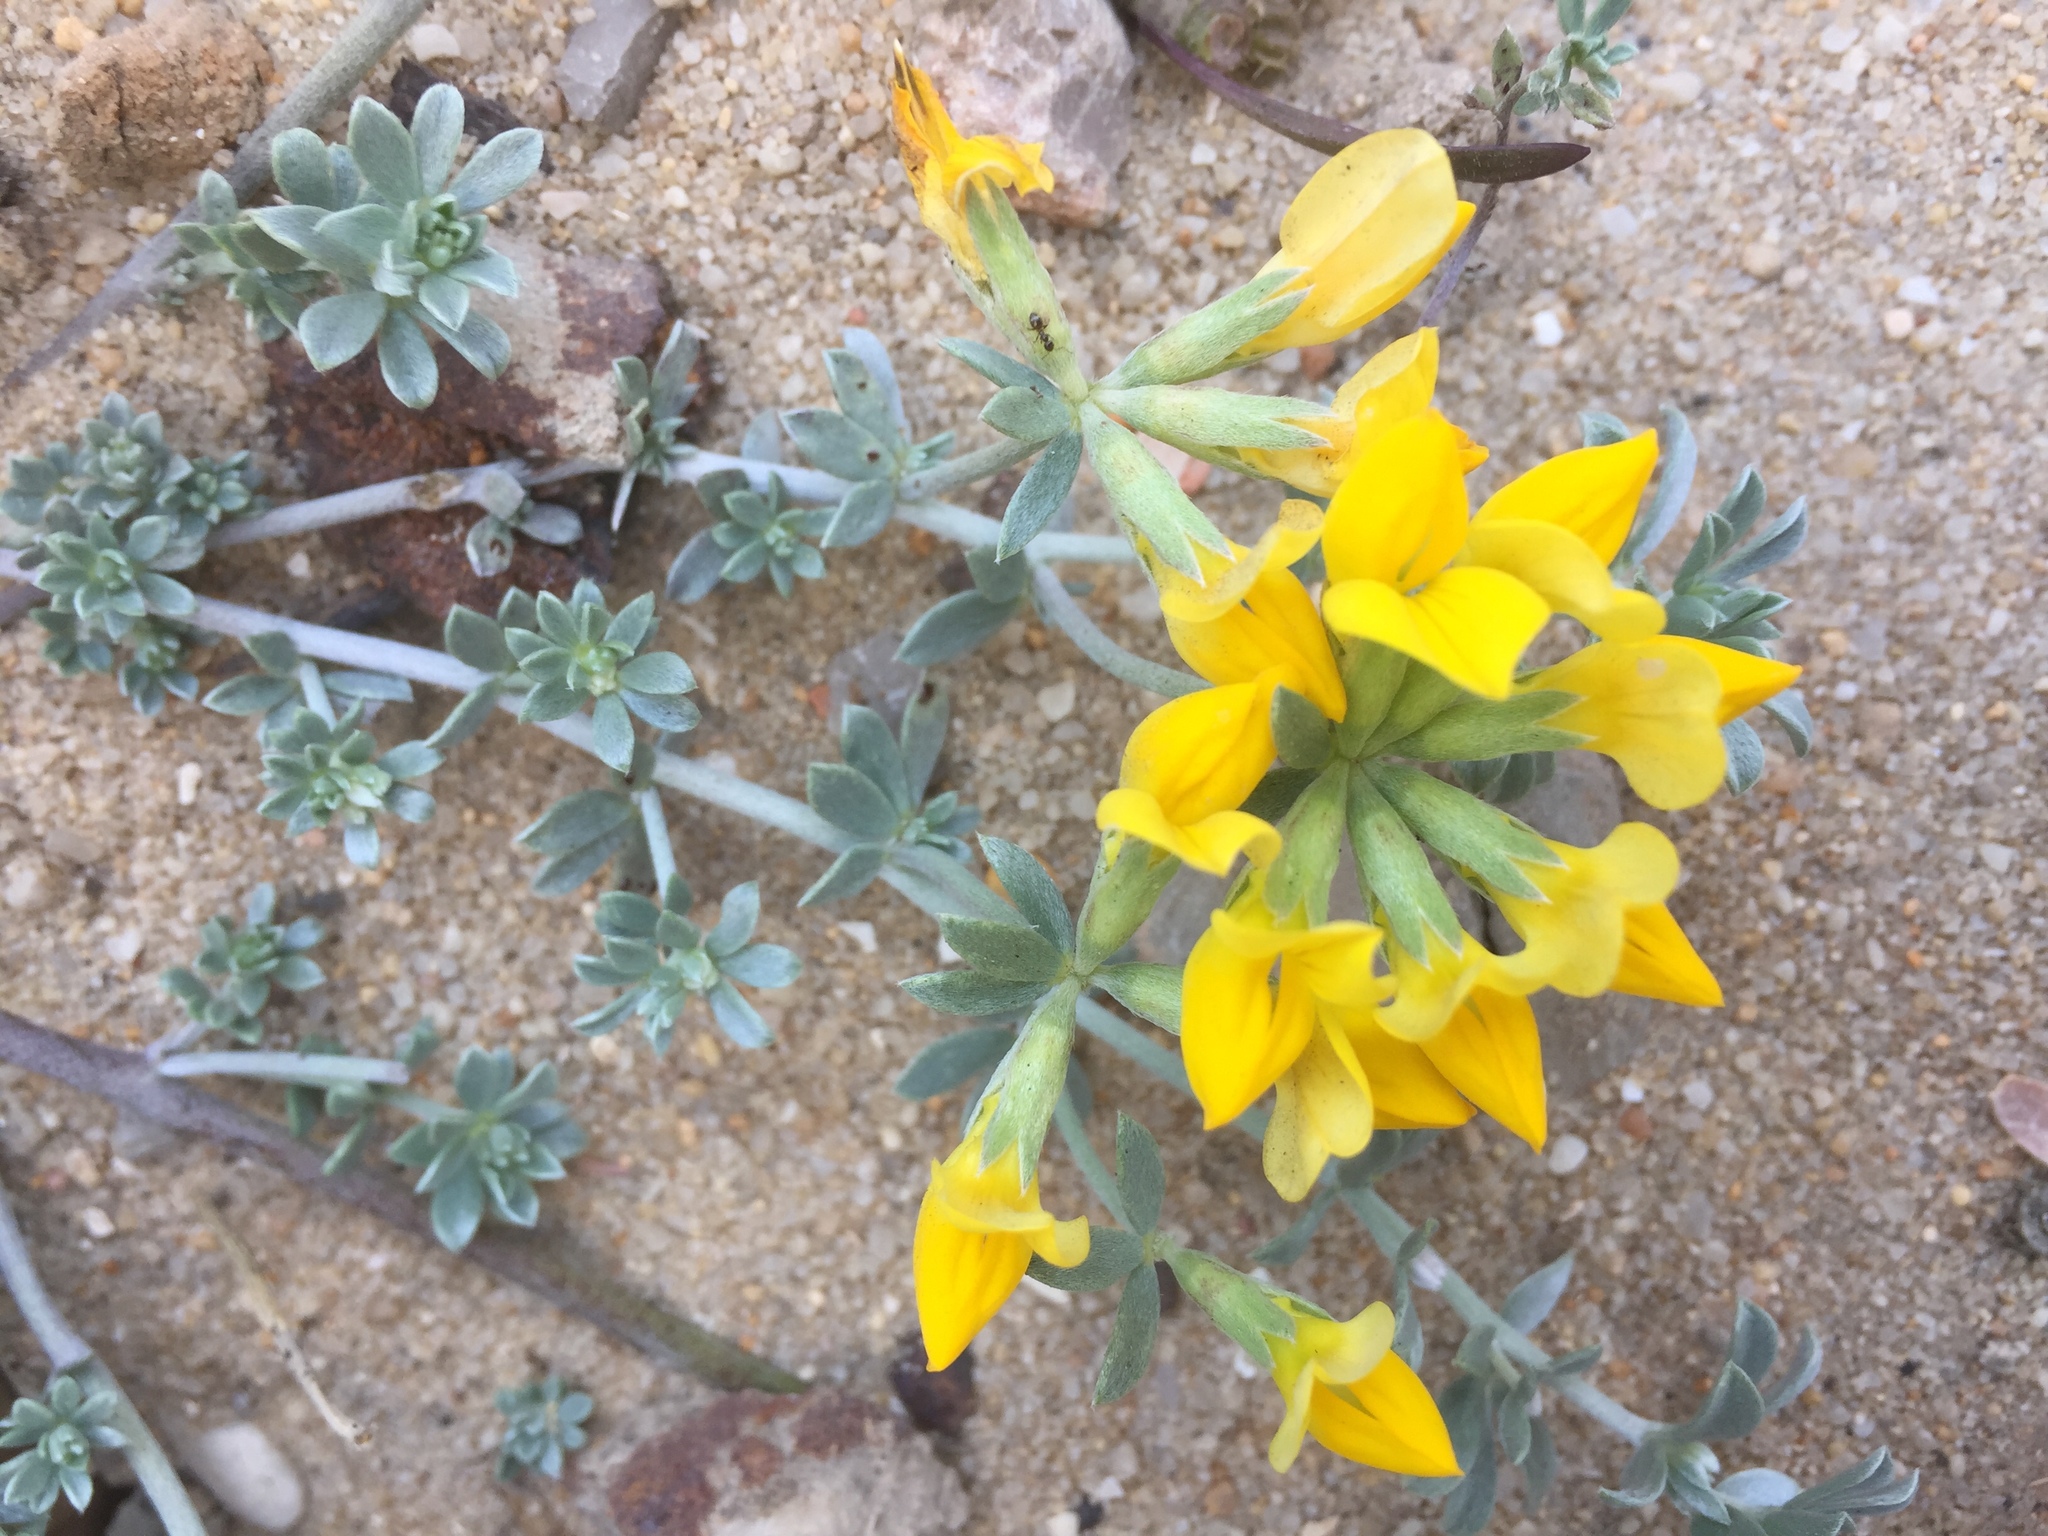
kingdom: Plantae
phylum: Tracheophyta
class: Magnoliopsida
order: Fabales
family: Fabaceae
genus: Lotus
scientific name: Lotus creticus
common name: Cretan bird's-foot trefoil
